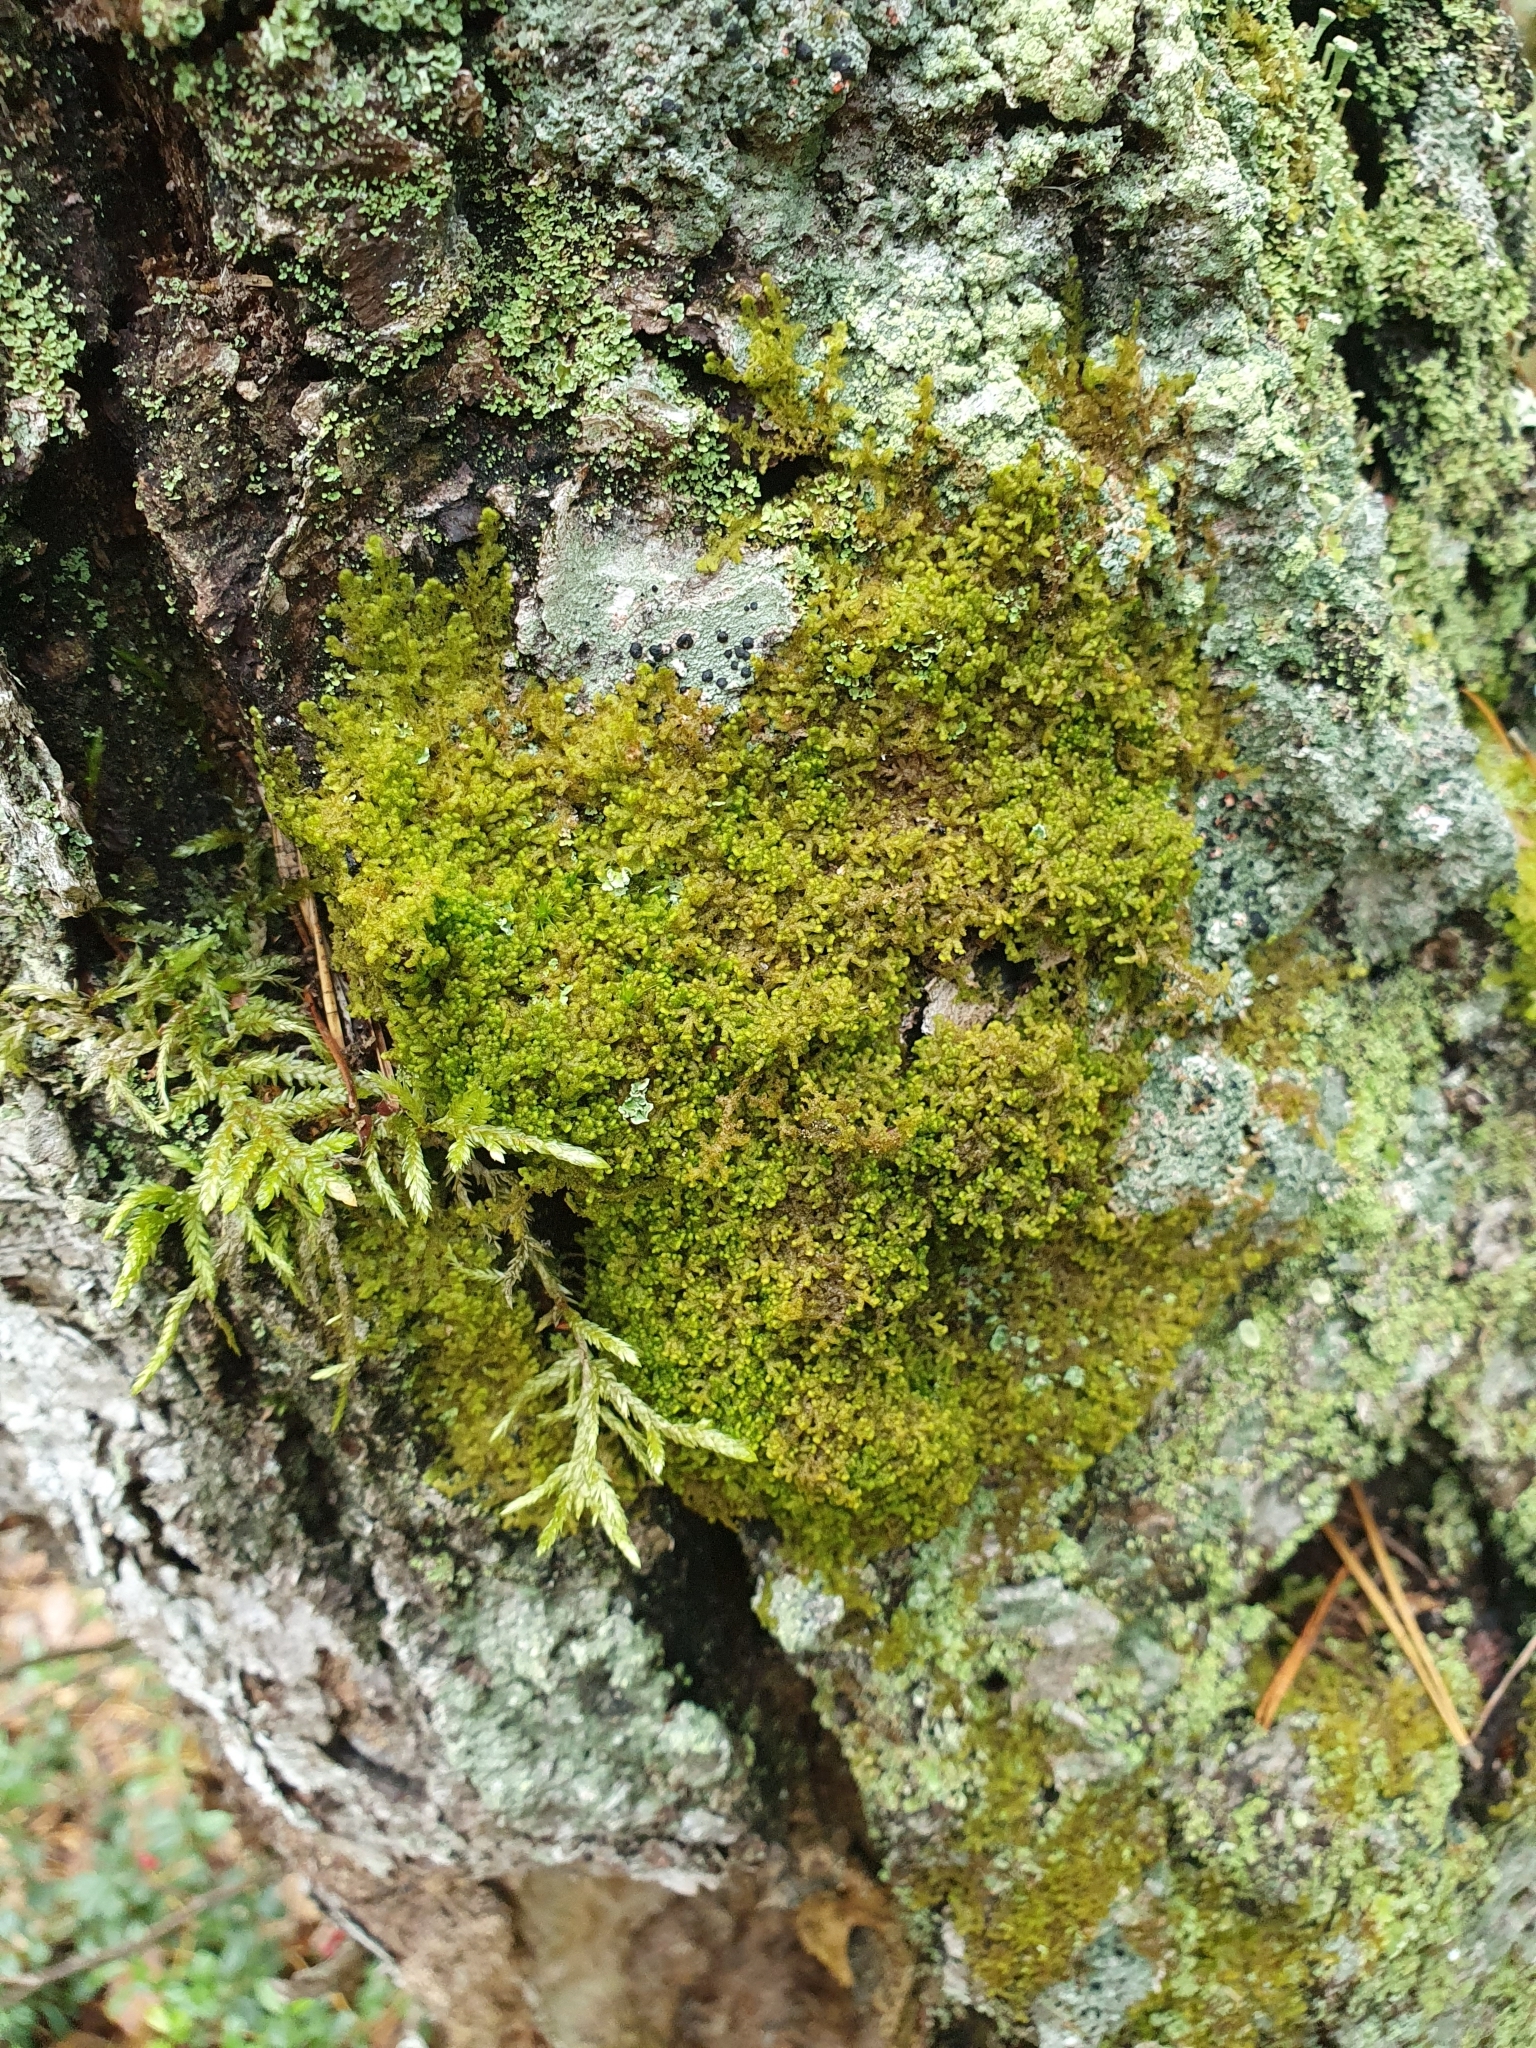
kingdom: Plantae
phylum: Marchantiophyta
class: Jungermanniopsida
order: Ptilidiales
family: Ptilidiaceae
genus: Ptilidium
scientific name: Ptilidium pulcherrimum
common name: Tree fringewort
